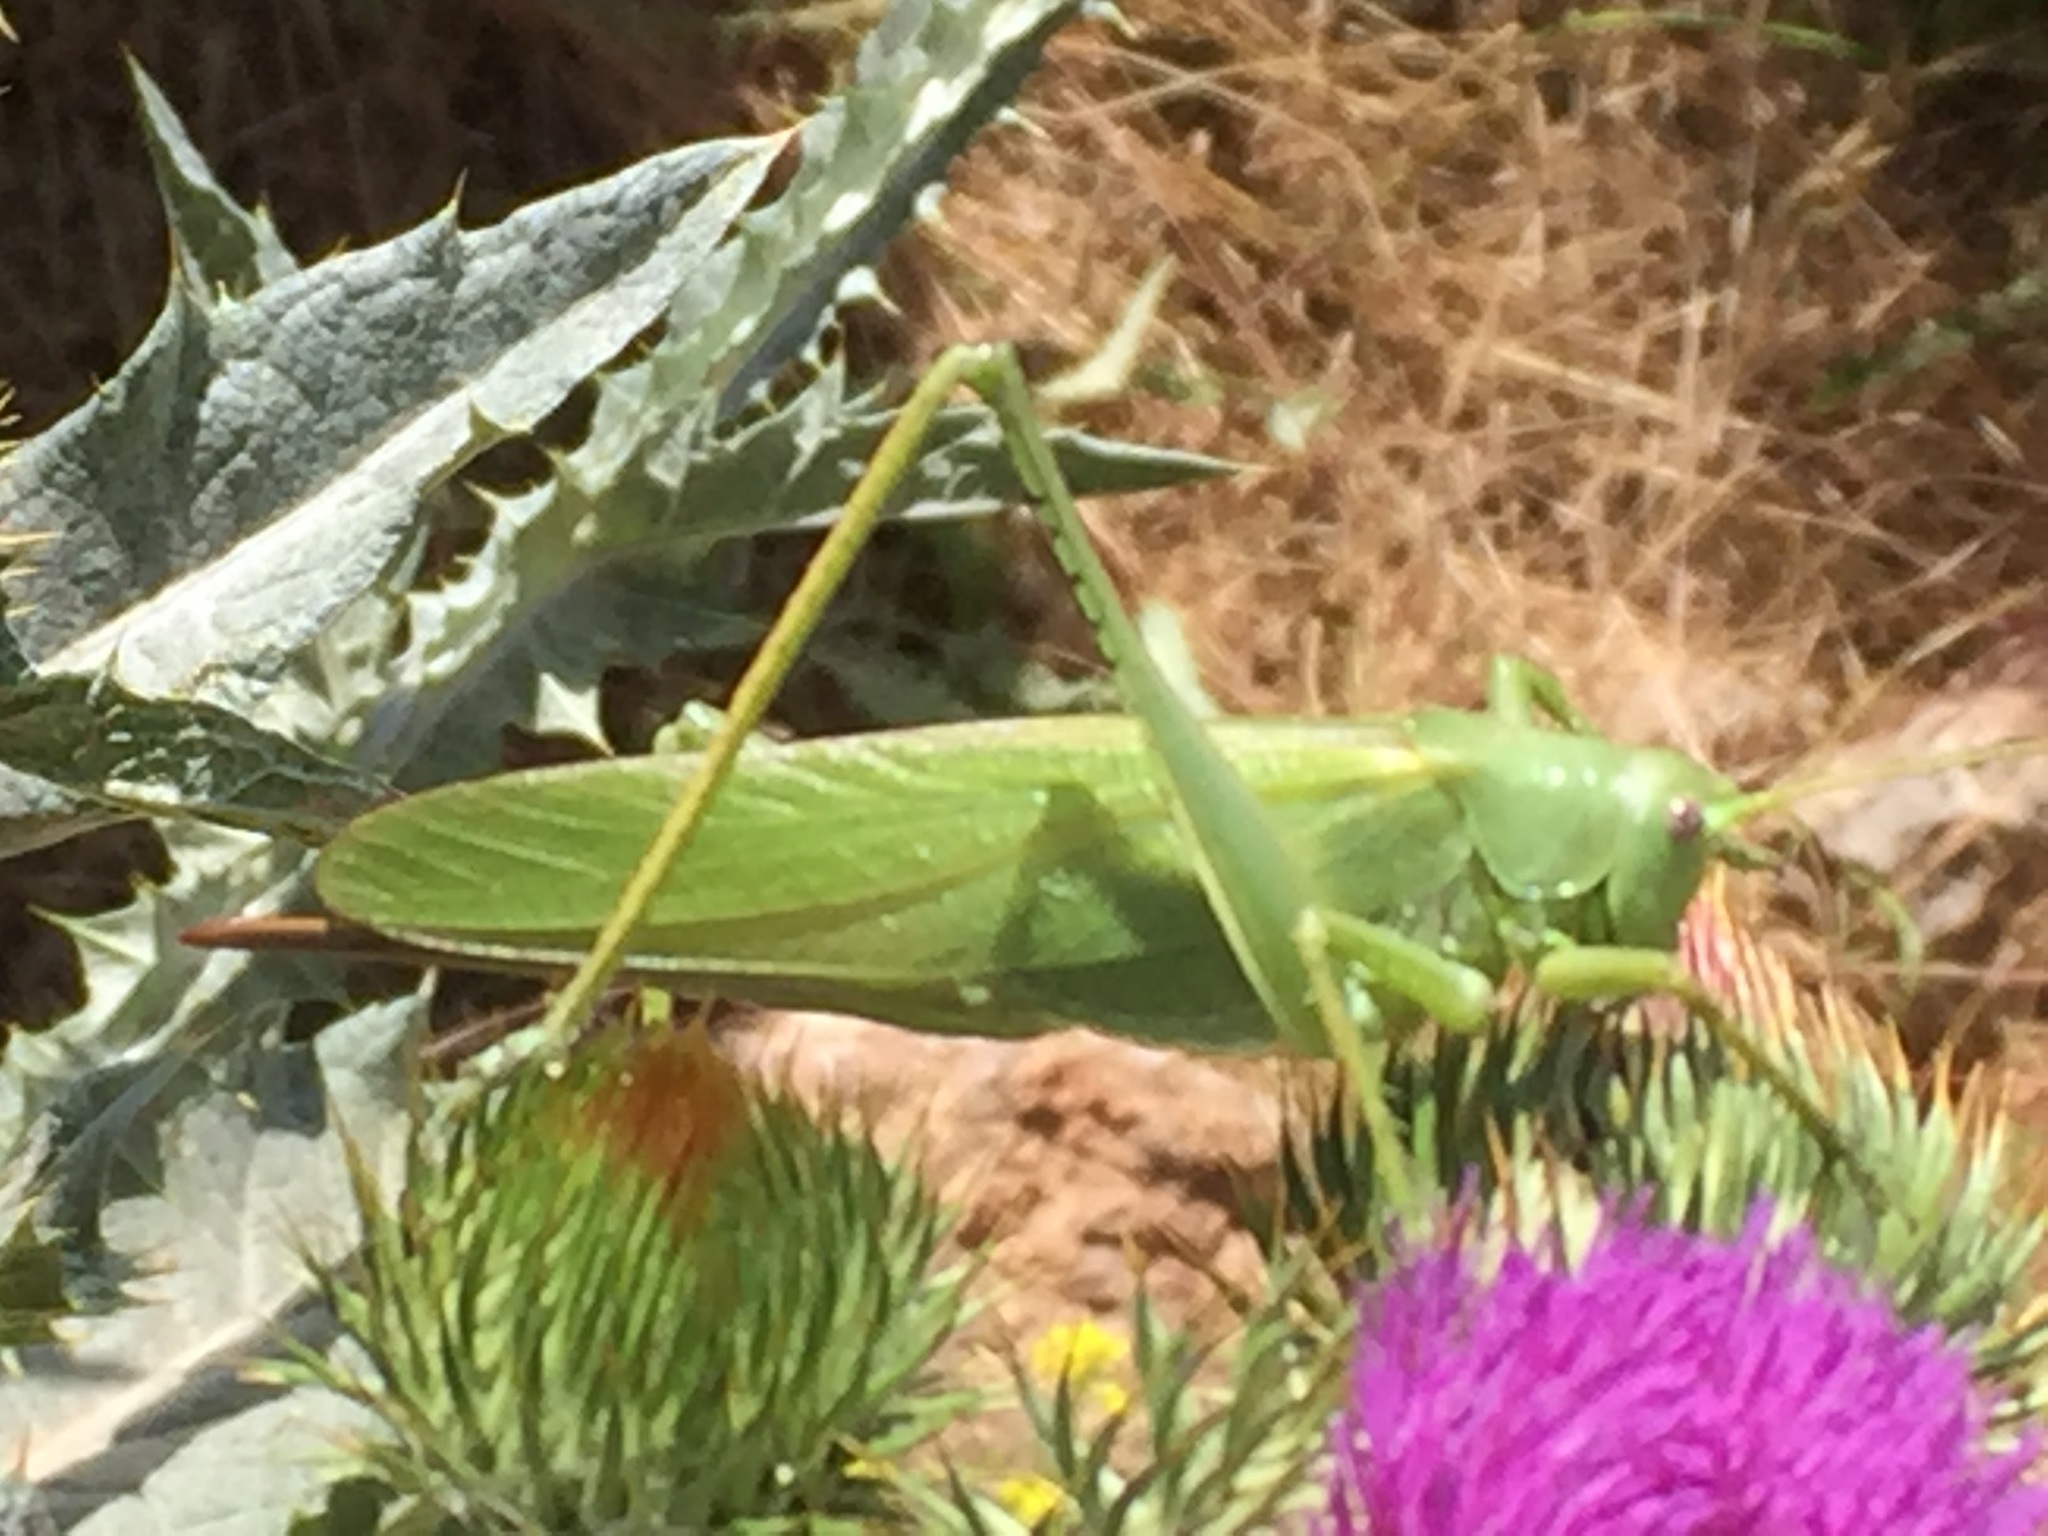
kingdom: Animalia
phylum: Arthropoda
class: Insecta
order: Orthoptera
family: Tettigoniidae
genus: Tettigonia
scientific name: Tettigonia caudata
